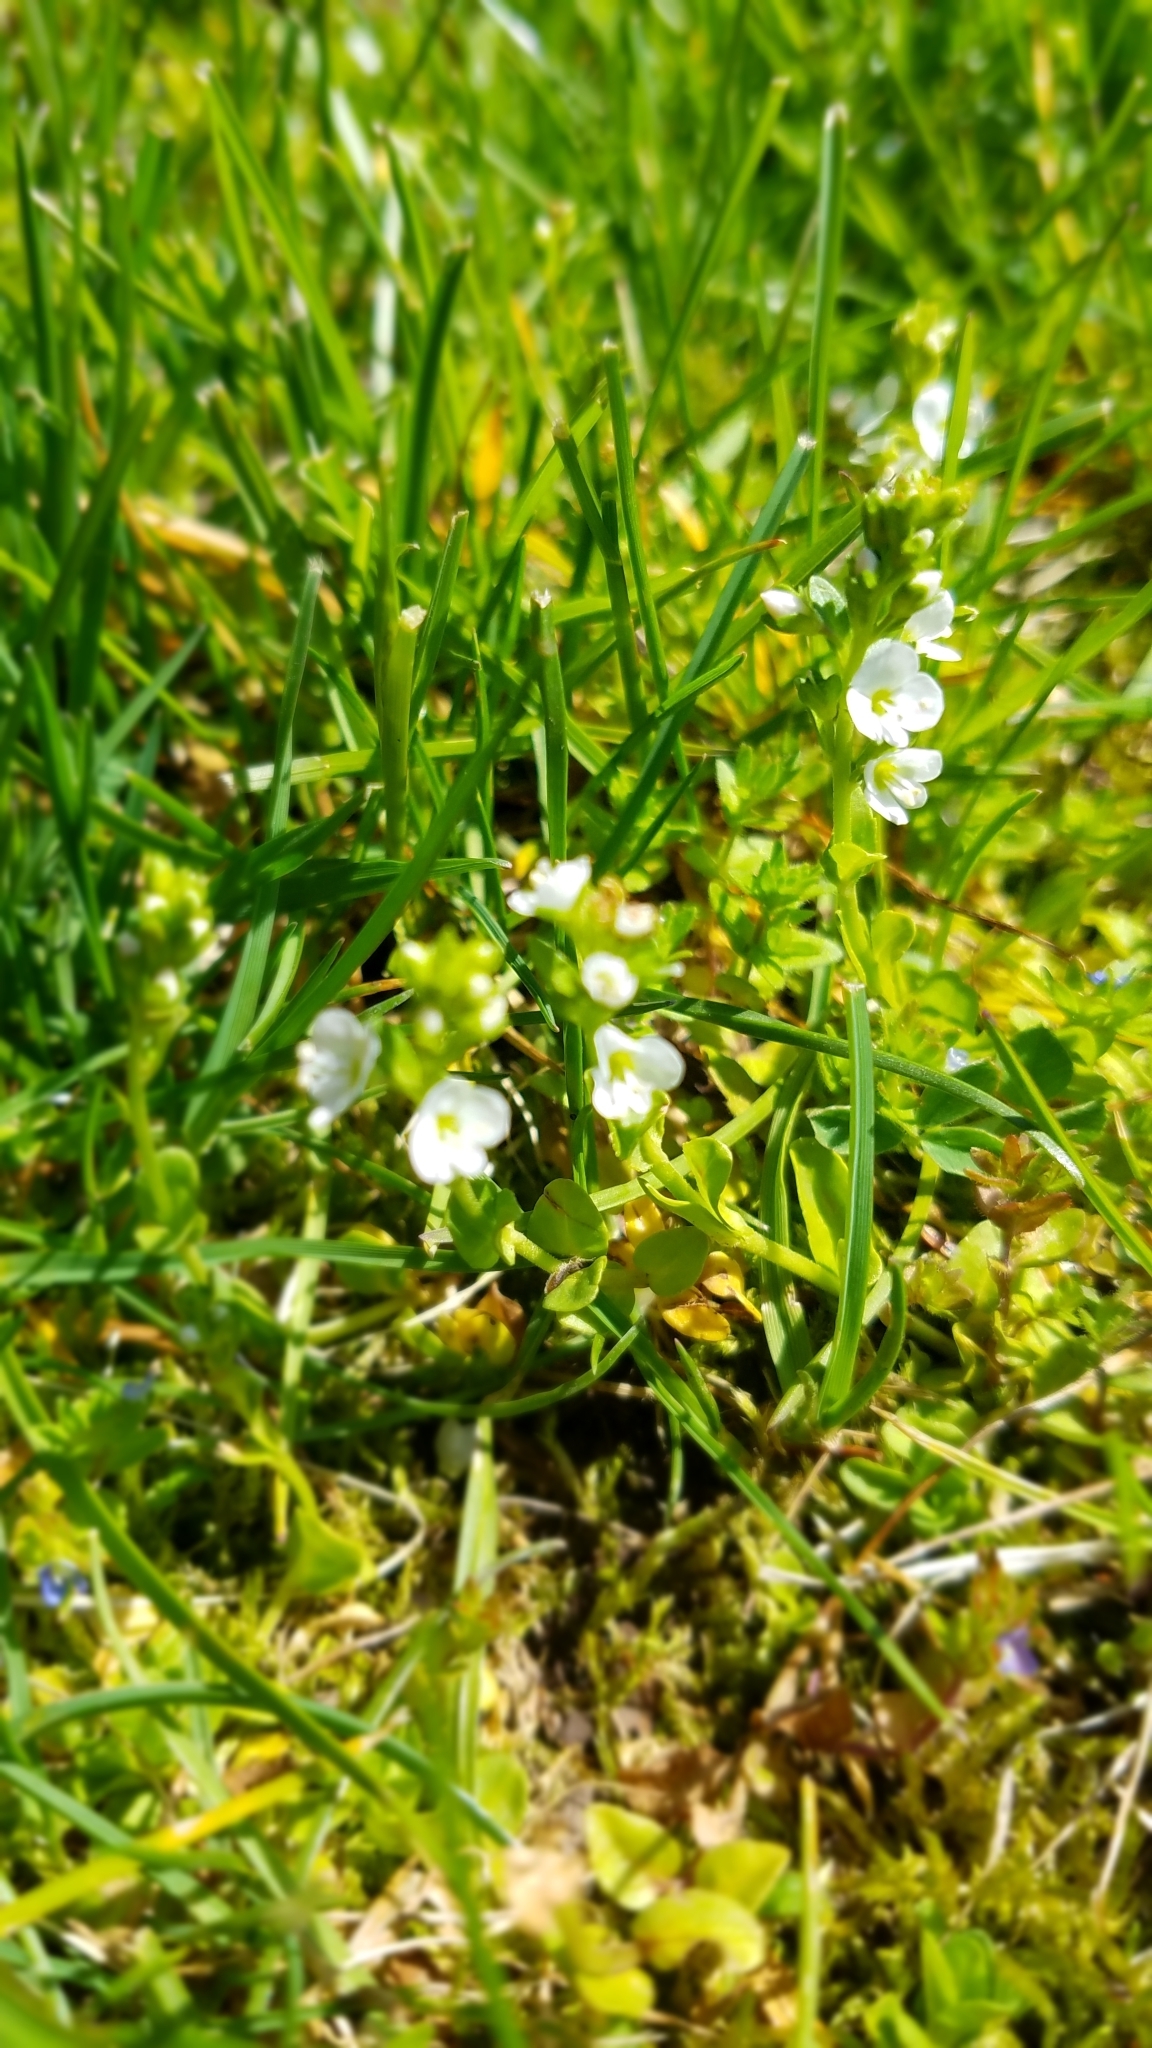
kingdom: Plantae
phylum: Tracheophyta
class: Magnoliopsida
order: Lamiales
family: Plantaginaceae
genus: Veronica
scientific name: Veronica serpyllifolia
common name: Thyme-leaved speedwell
